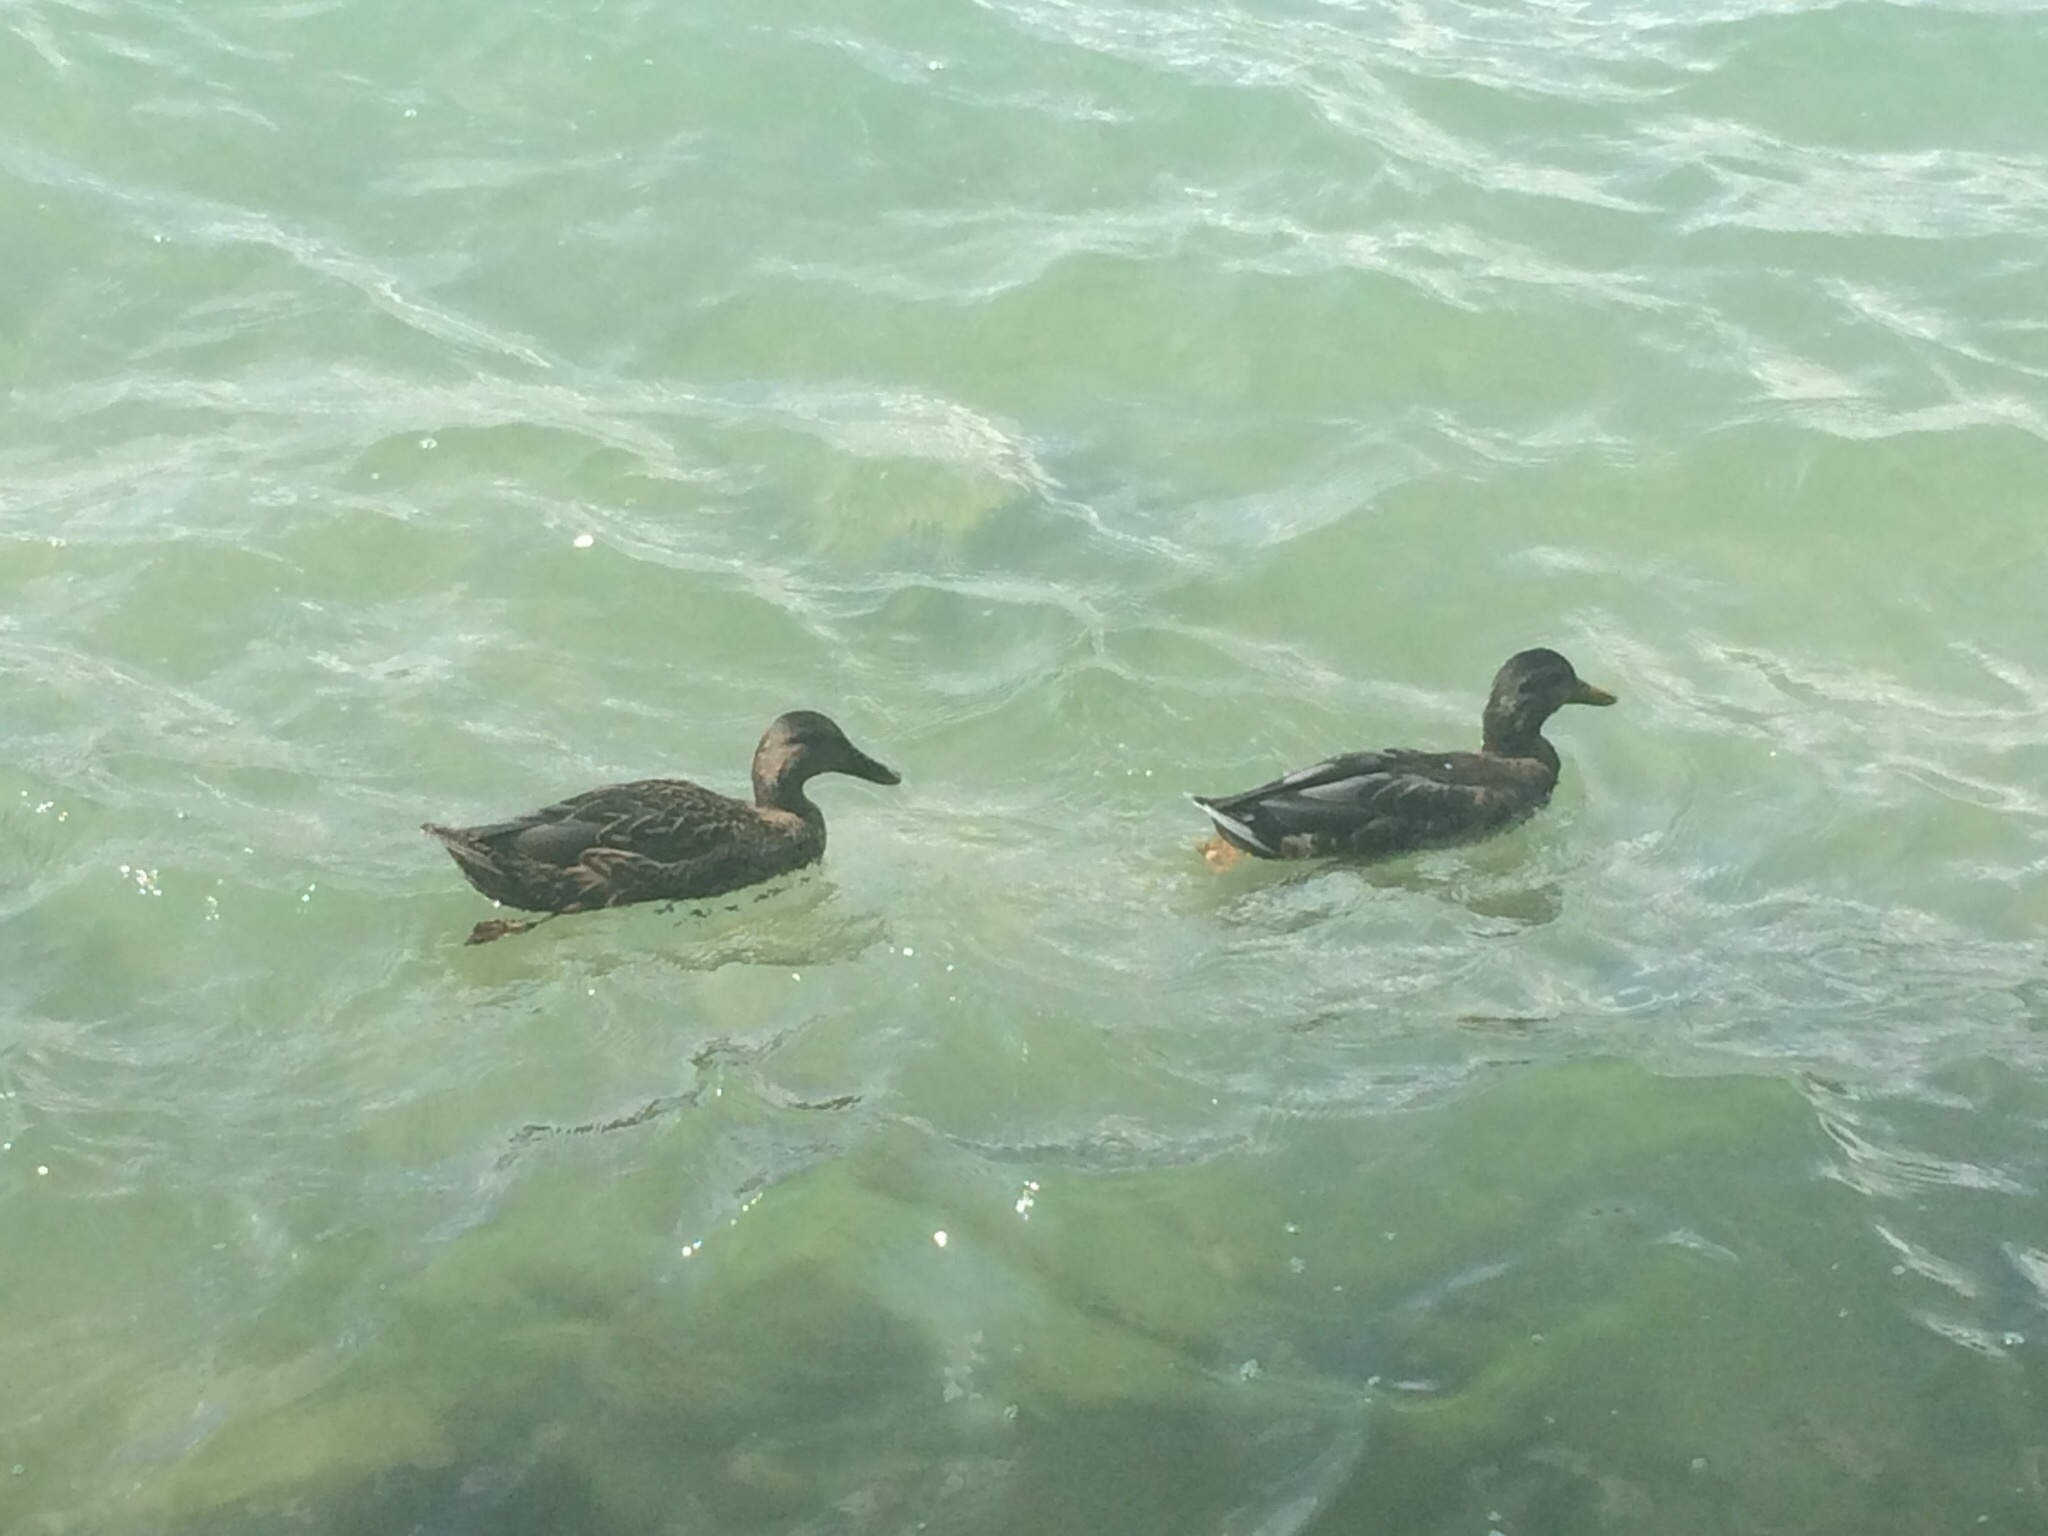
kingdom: Animalia
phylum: Chordata
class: Aves
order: Anseriformes
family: Anatidae
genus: Anas
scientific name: Anas platyrhynchos
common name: Mallard
